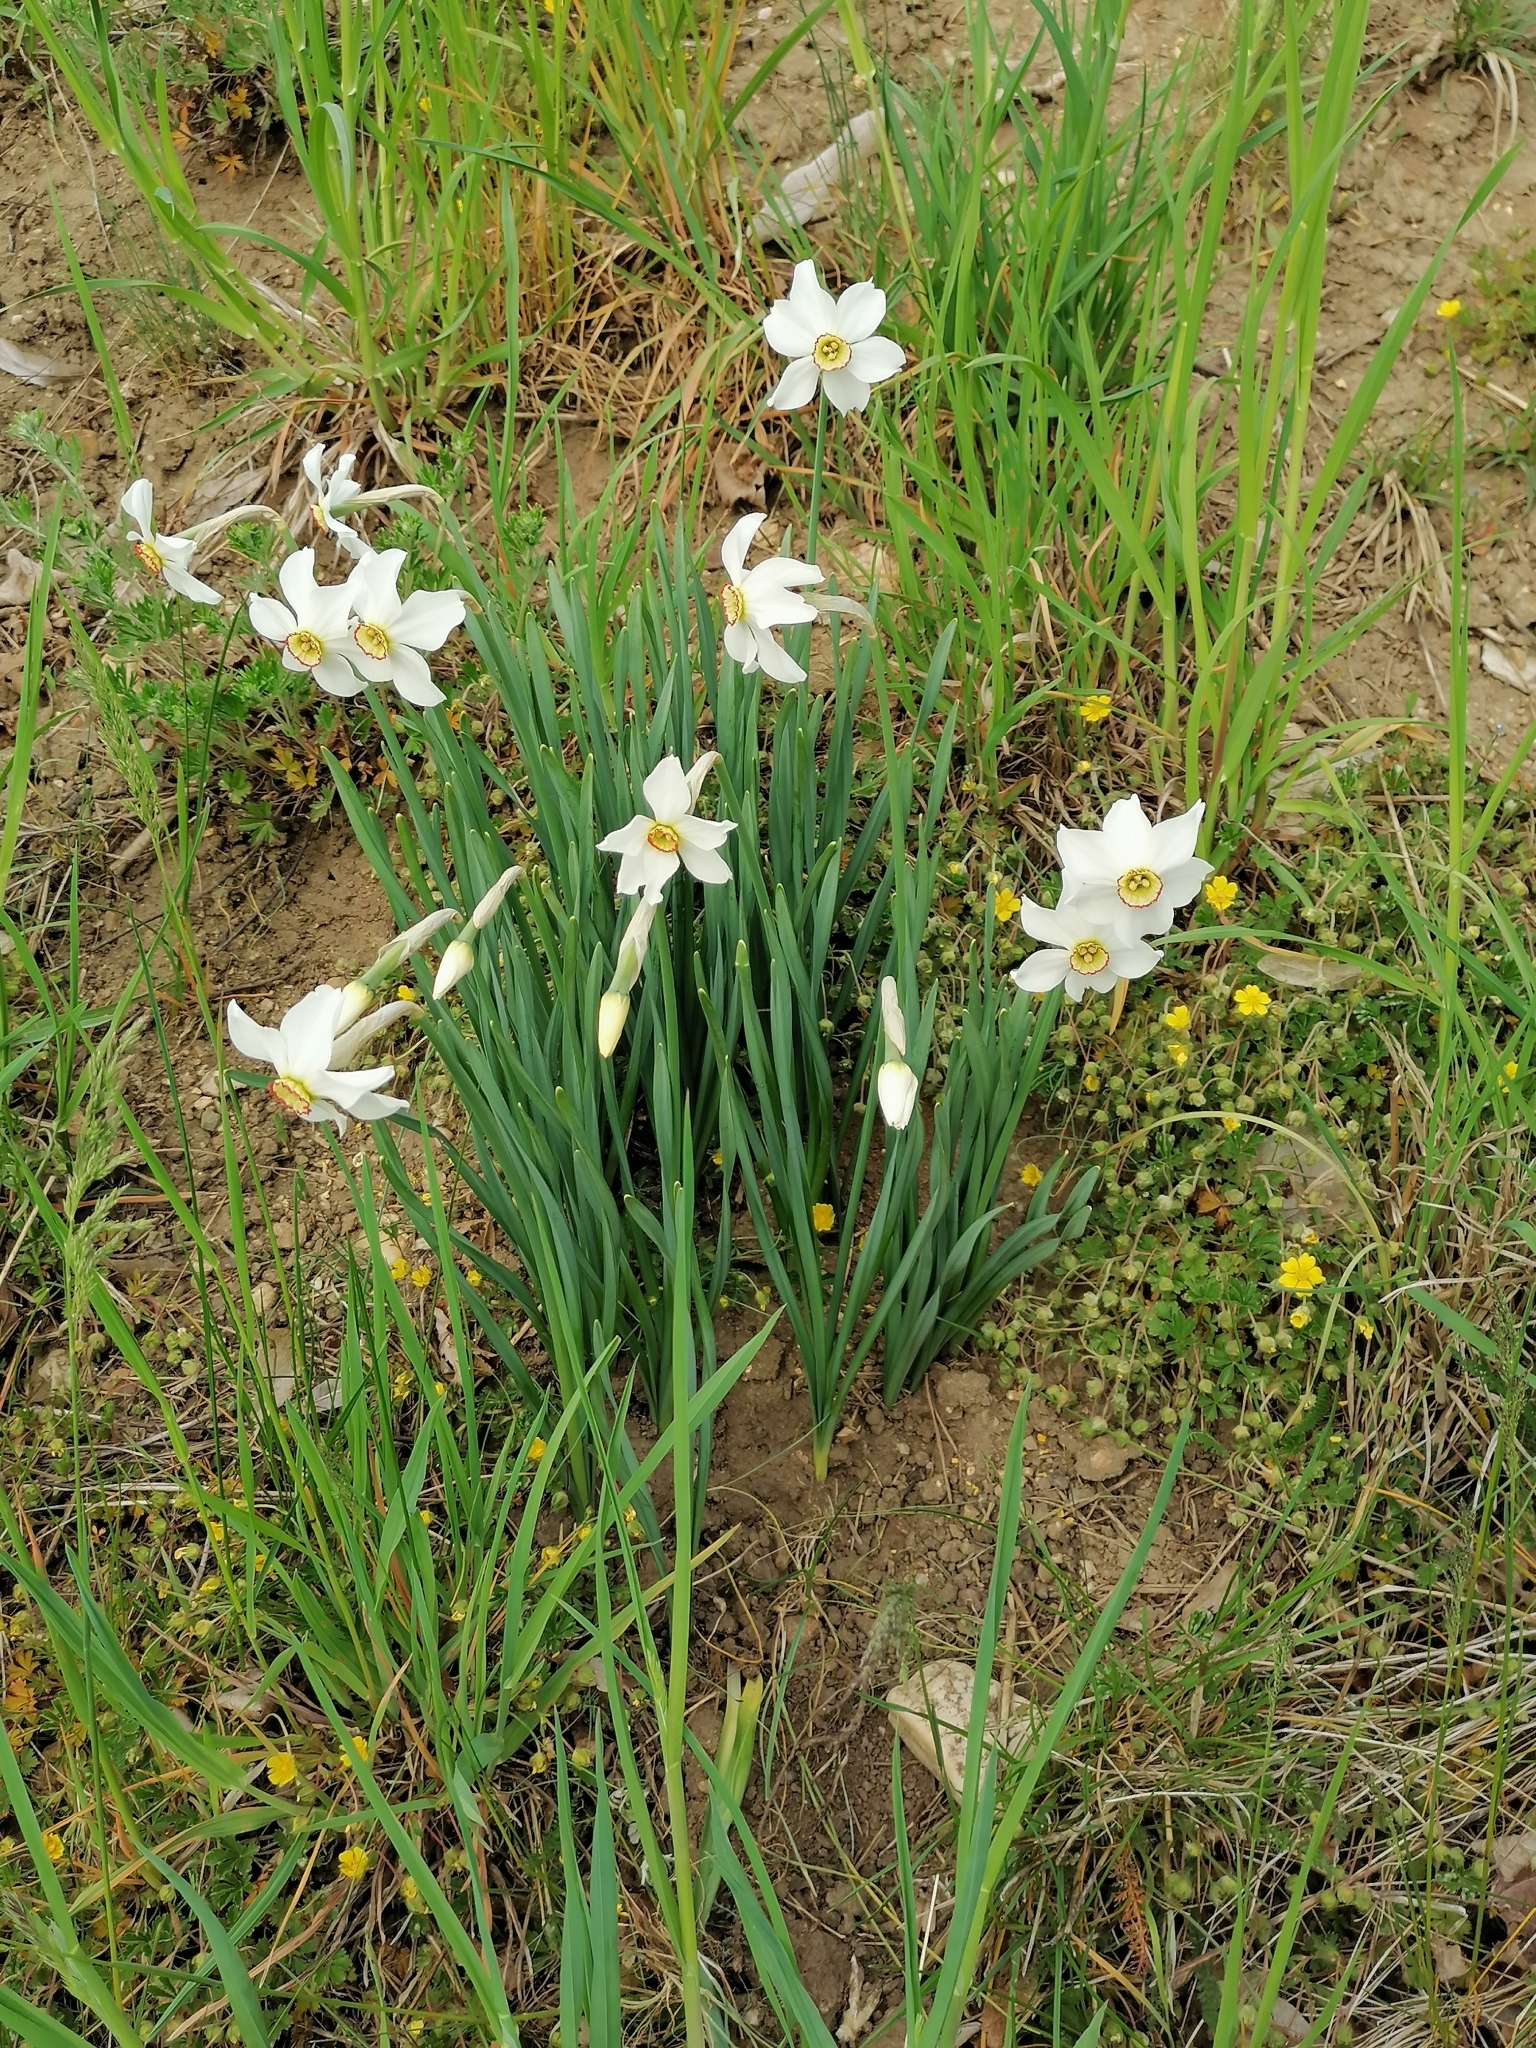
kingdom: Plantae
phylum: Tracheophyta
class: Liliopsida
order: Asparagales
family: Amaryllidaceae
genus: Narcissus
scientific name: Narcissus poeticus
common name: Pheasant's-eye daffodil
